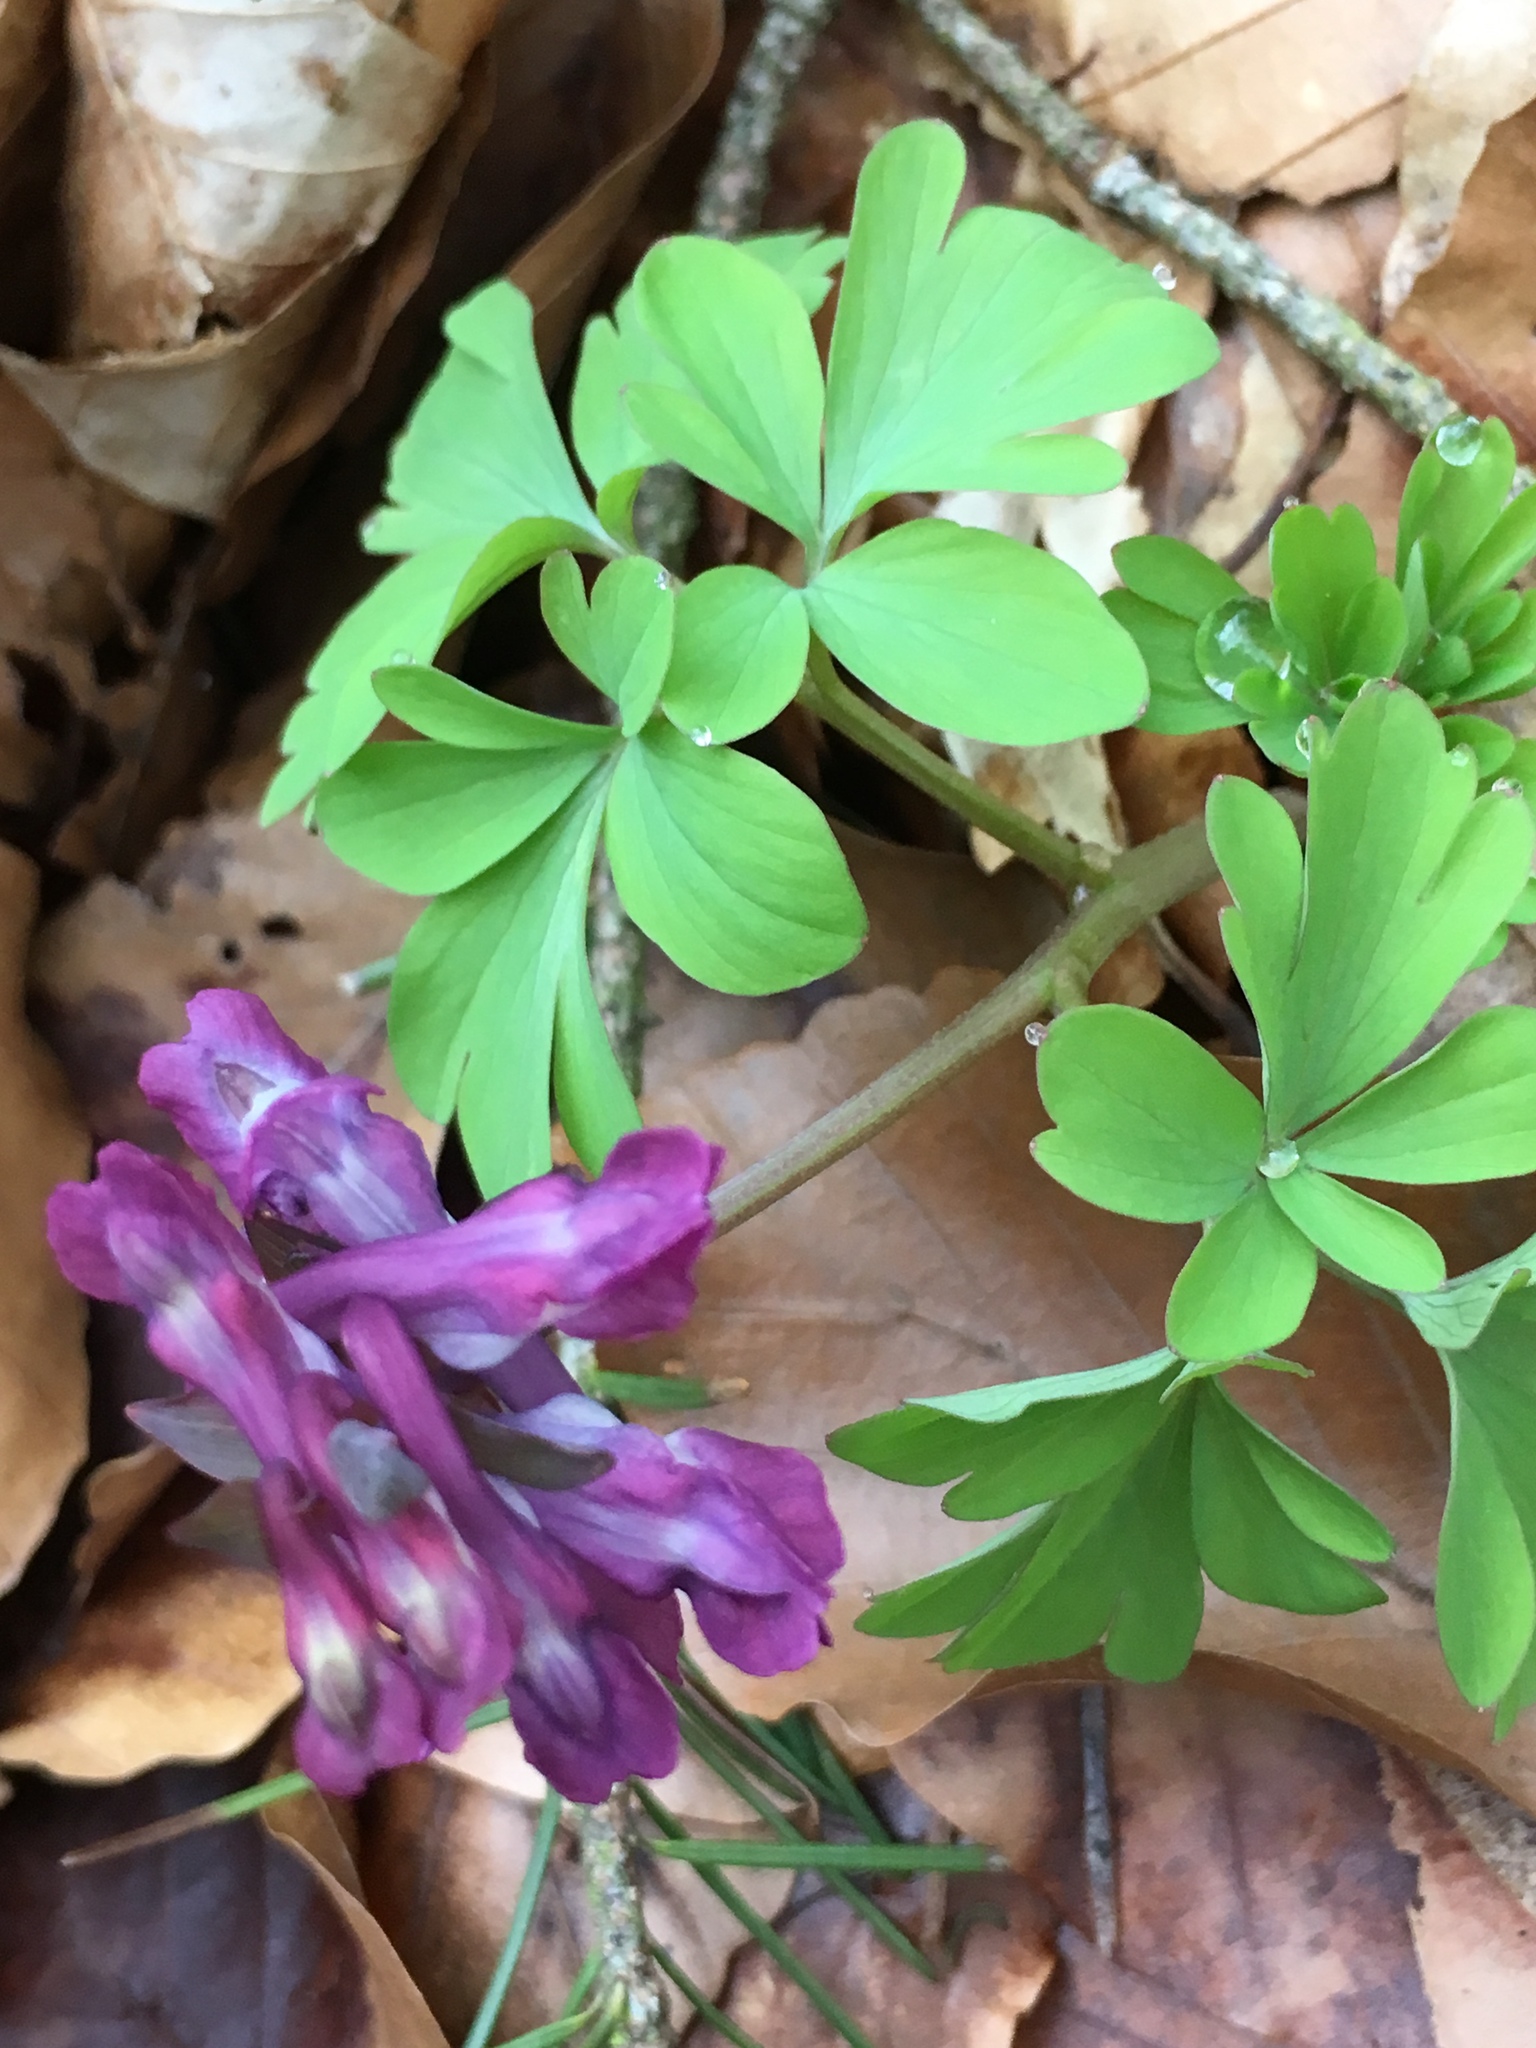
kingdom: Plantae
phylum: Tracheophyta
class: Magnoliopsida
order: Ranunculales
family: Papaveraceae
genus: Corydalis
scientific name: Corydalis cava
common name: Hollowroot
